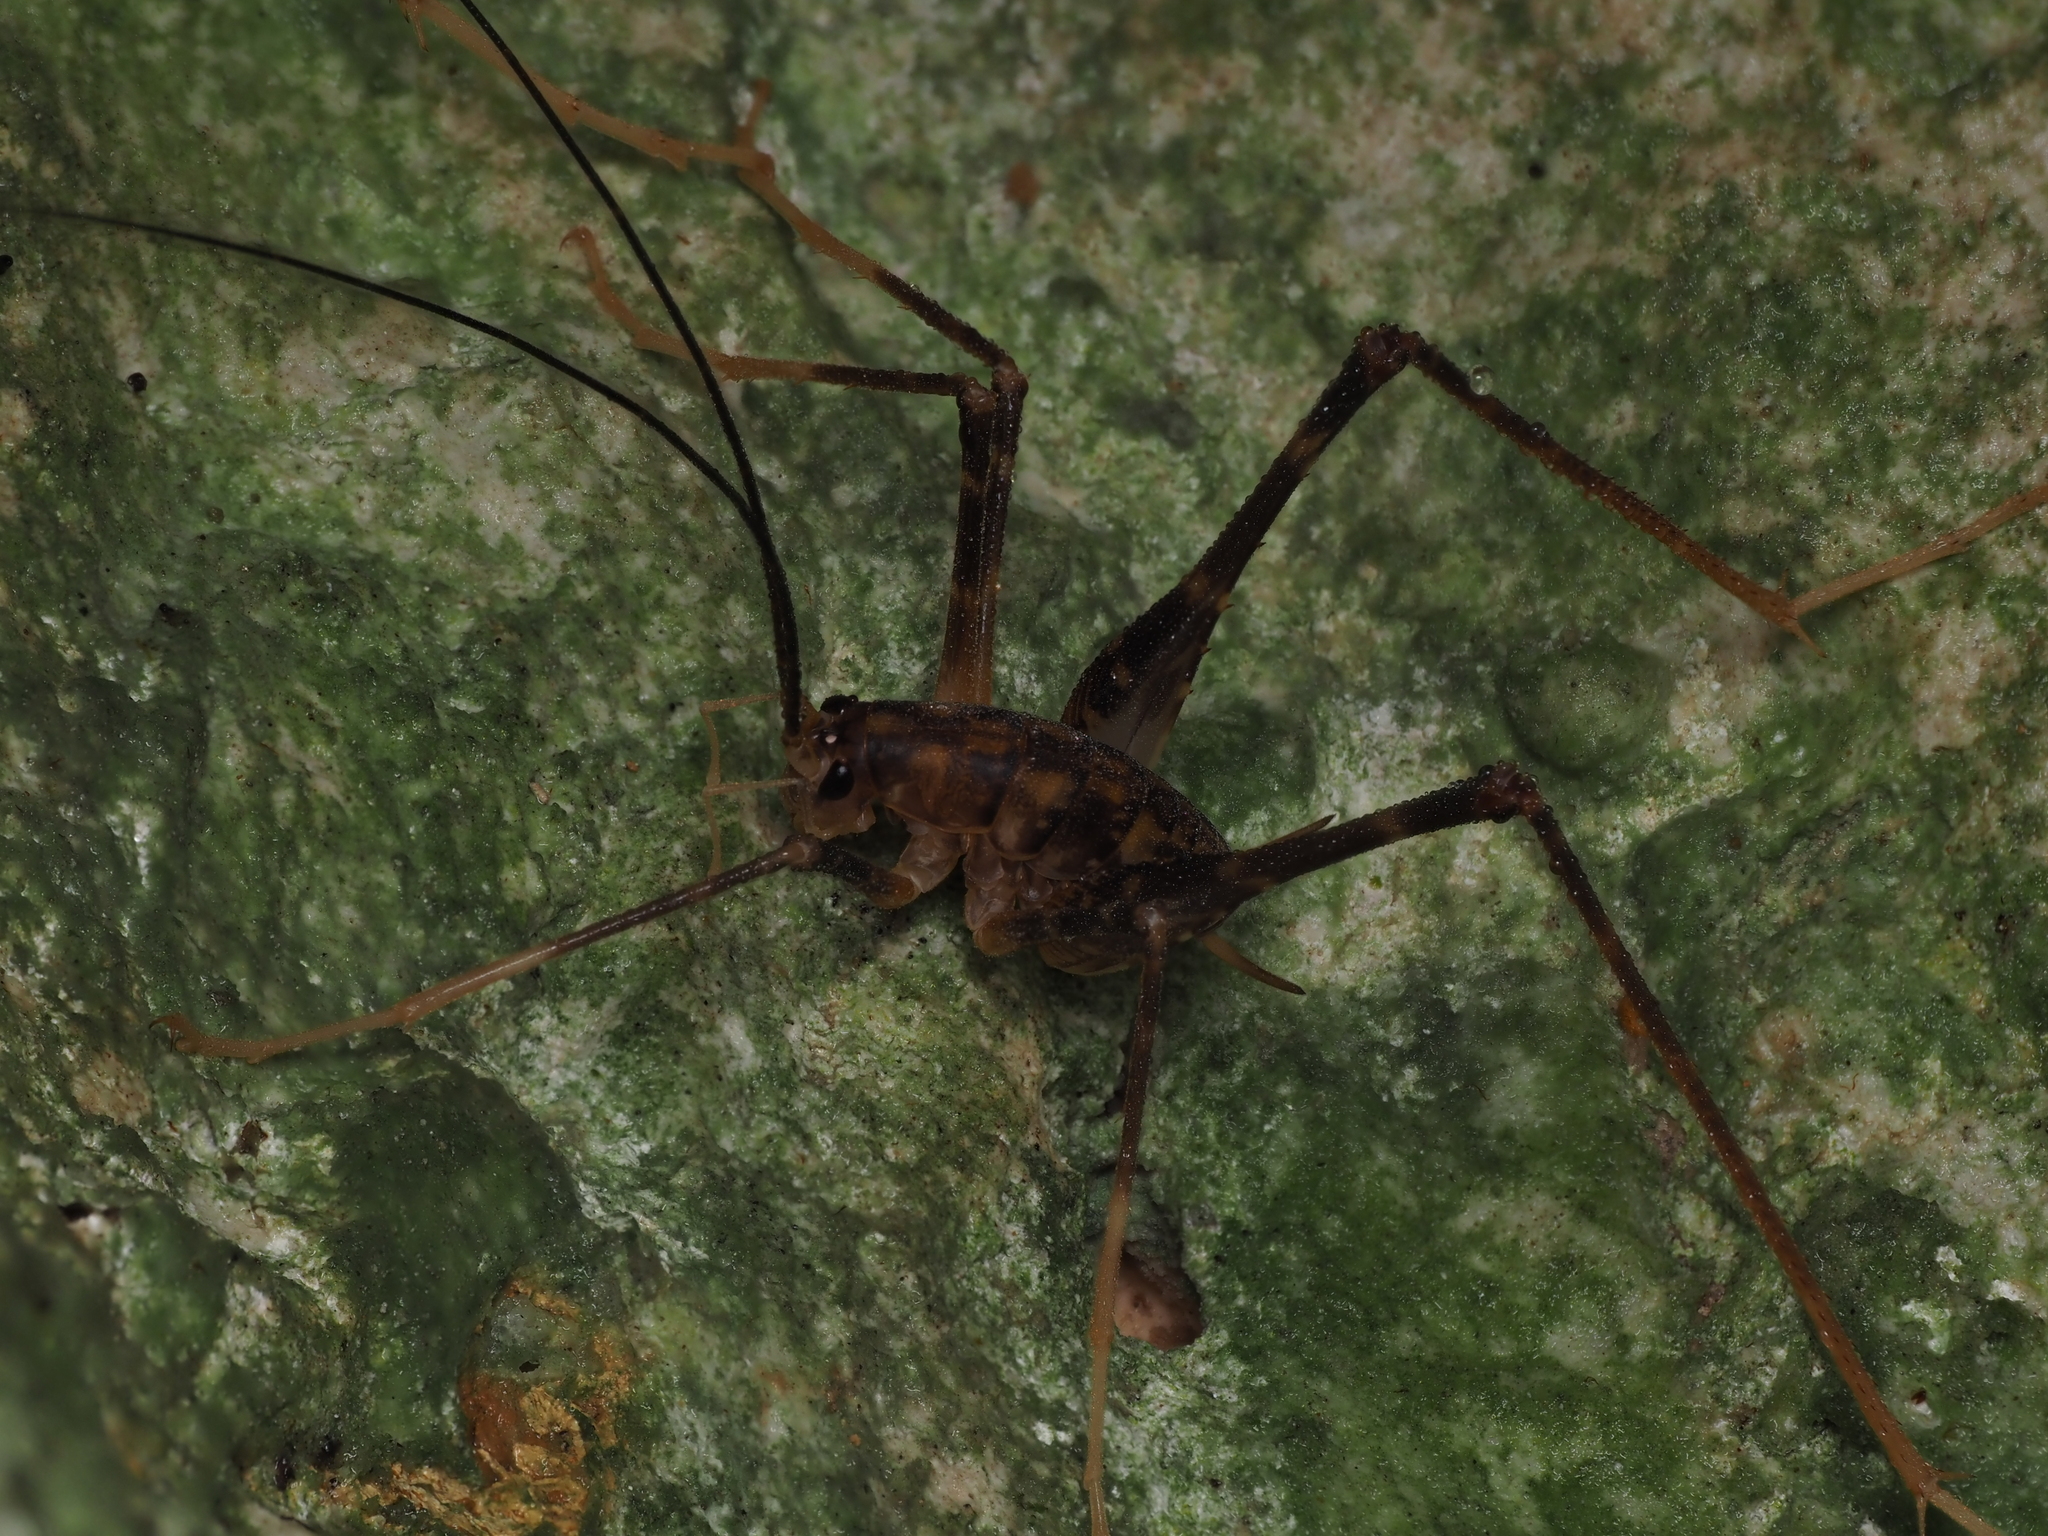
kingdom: Animalia
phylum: Arthropoda
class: Insecta
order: Orthoptera
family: Rhaphidophoridae
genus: Pachyrhamma
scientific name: Pachyrhamma waitomoensis
